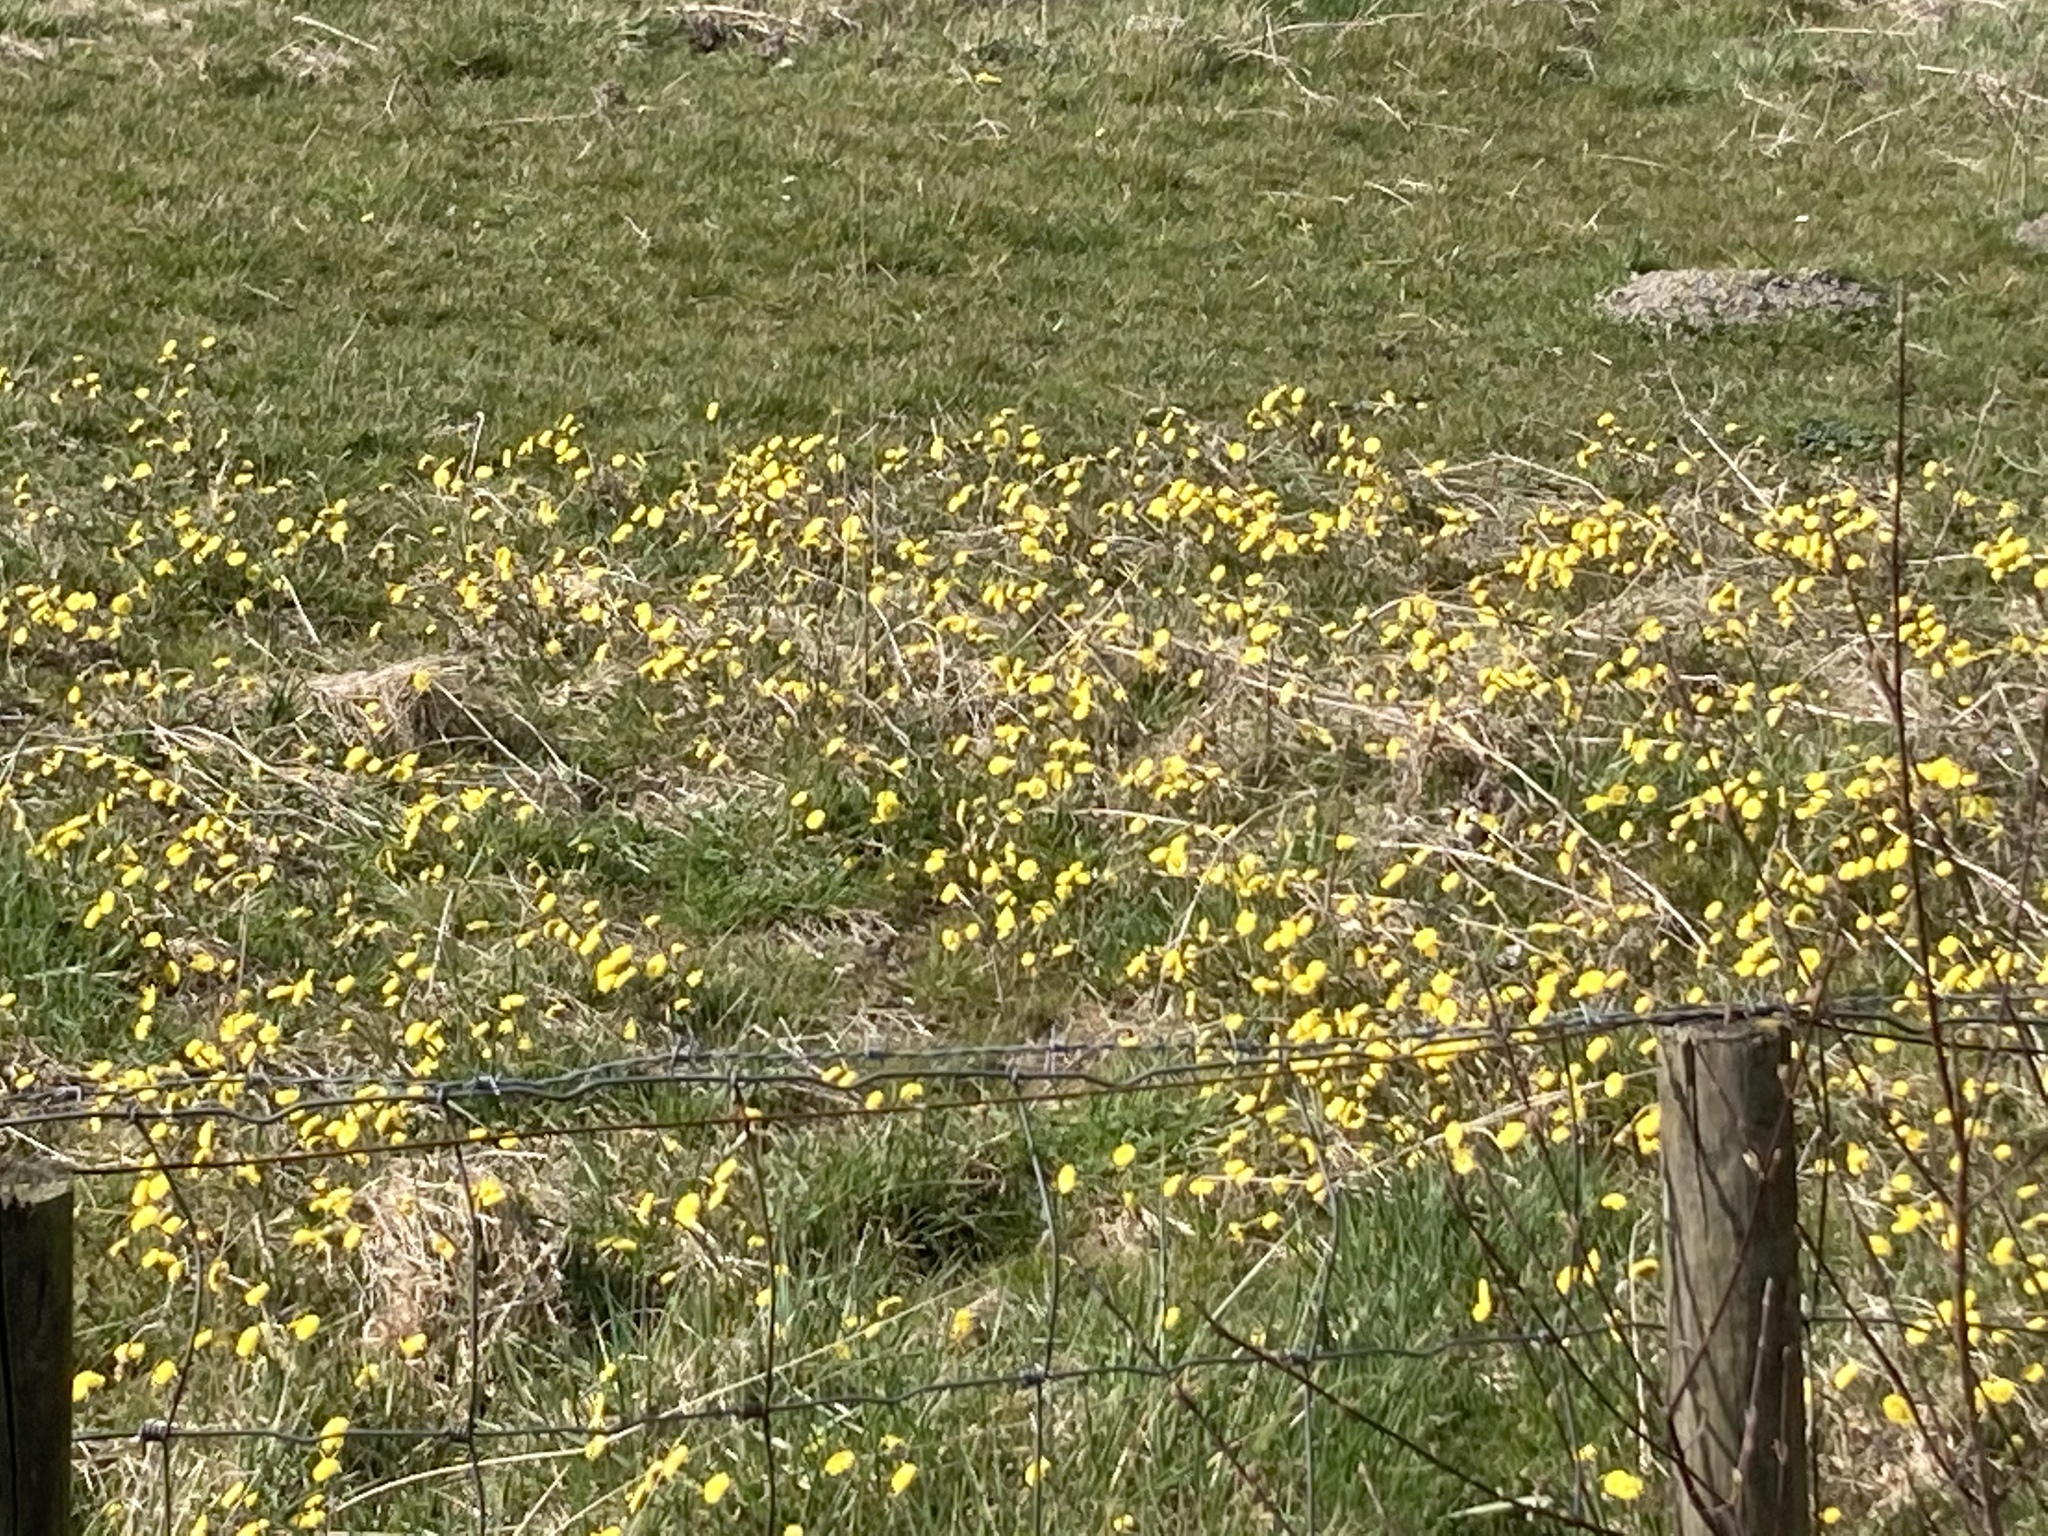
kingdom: Plantae
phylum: Tracheophyta
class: Magnoliopsida
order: Asterales
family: Asteraceae
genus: Tussilago
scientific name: Tussilago farfara
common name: Coltsfoot
